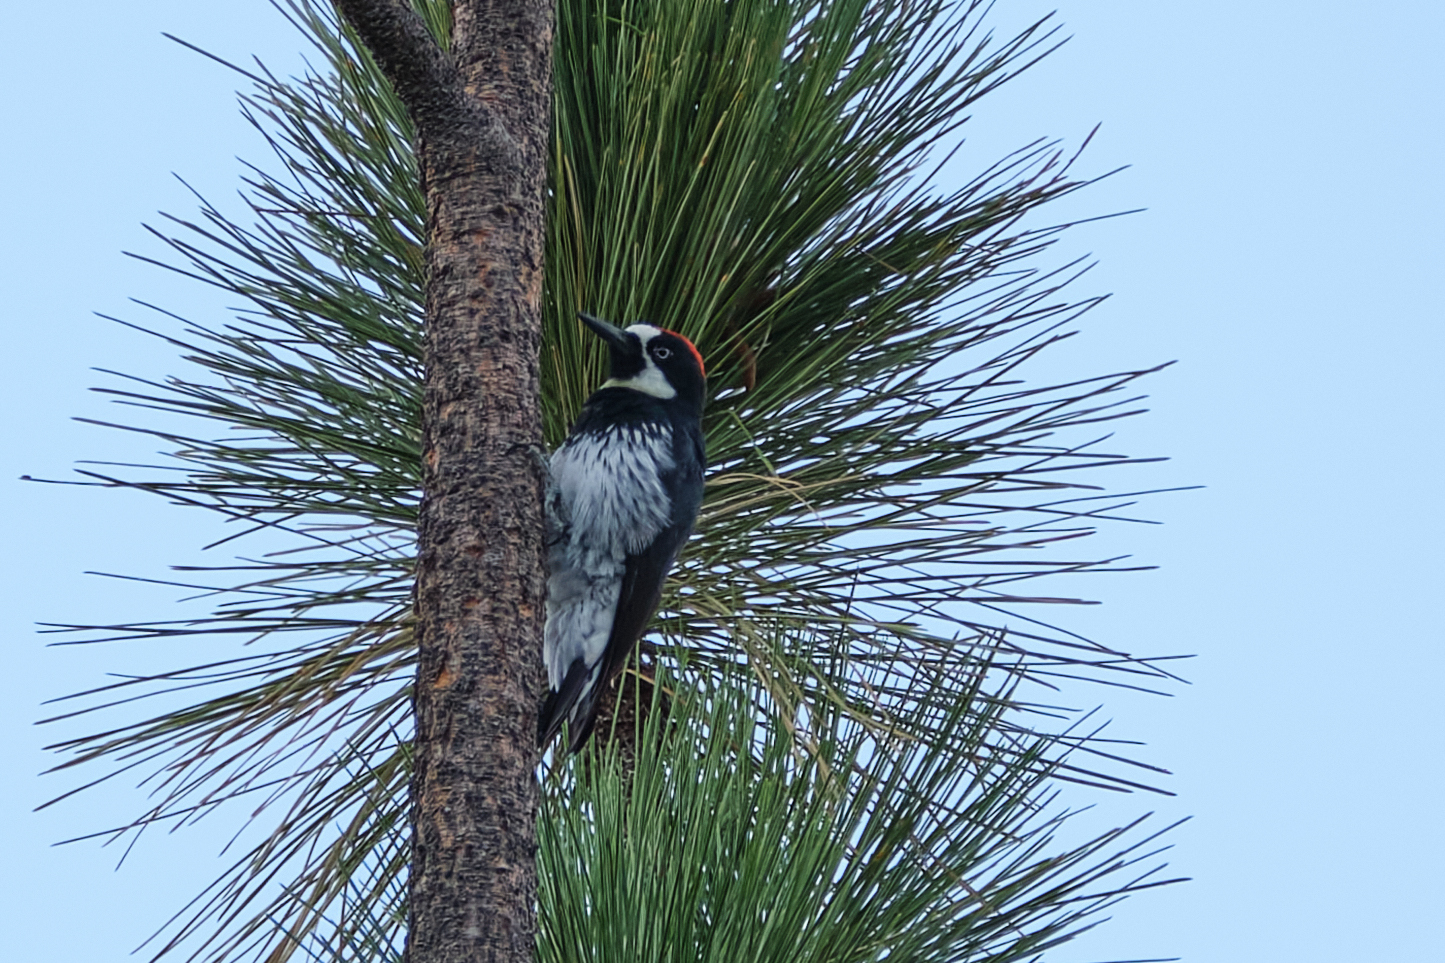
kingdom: Animalia
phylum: Chordata
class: Aves
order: Piciformes
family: Picidae
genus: Melanerpes
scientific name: Melanerpes formicivorus
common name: Acorn woodpecker
